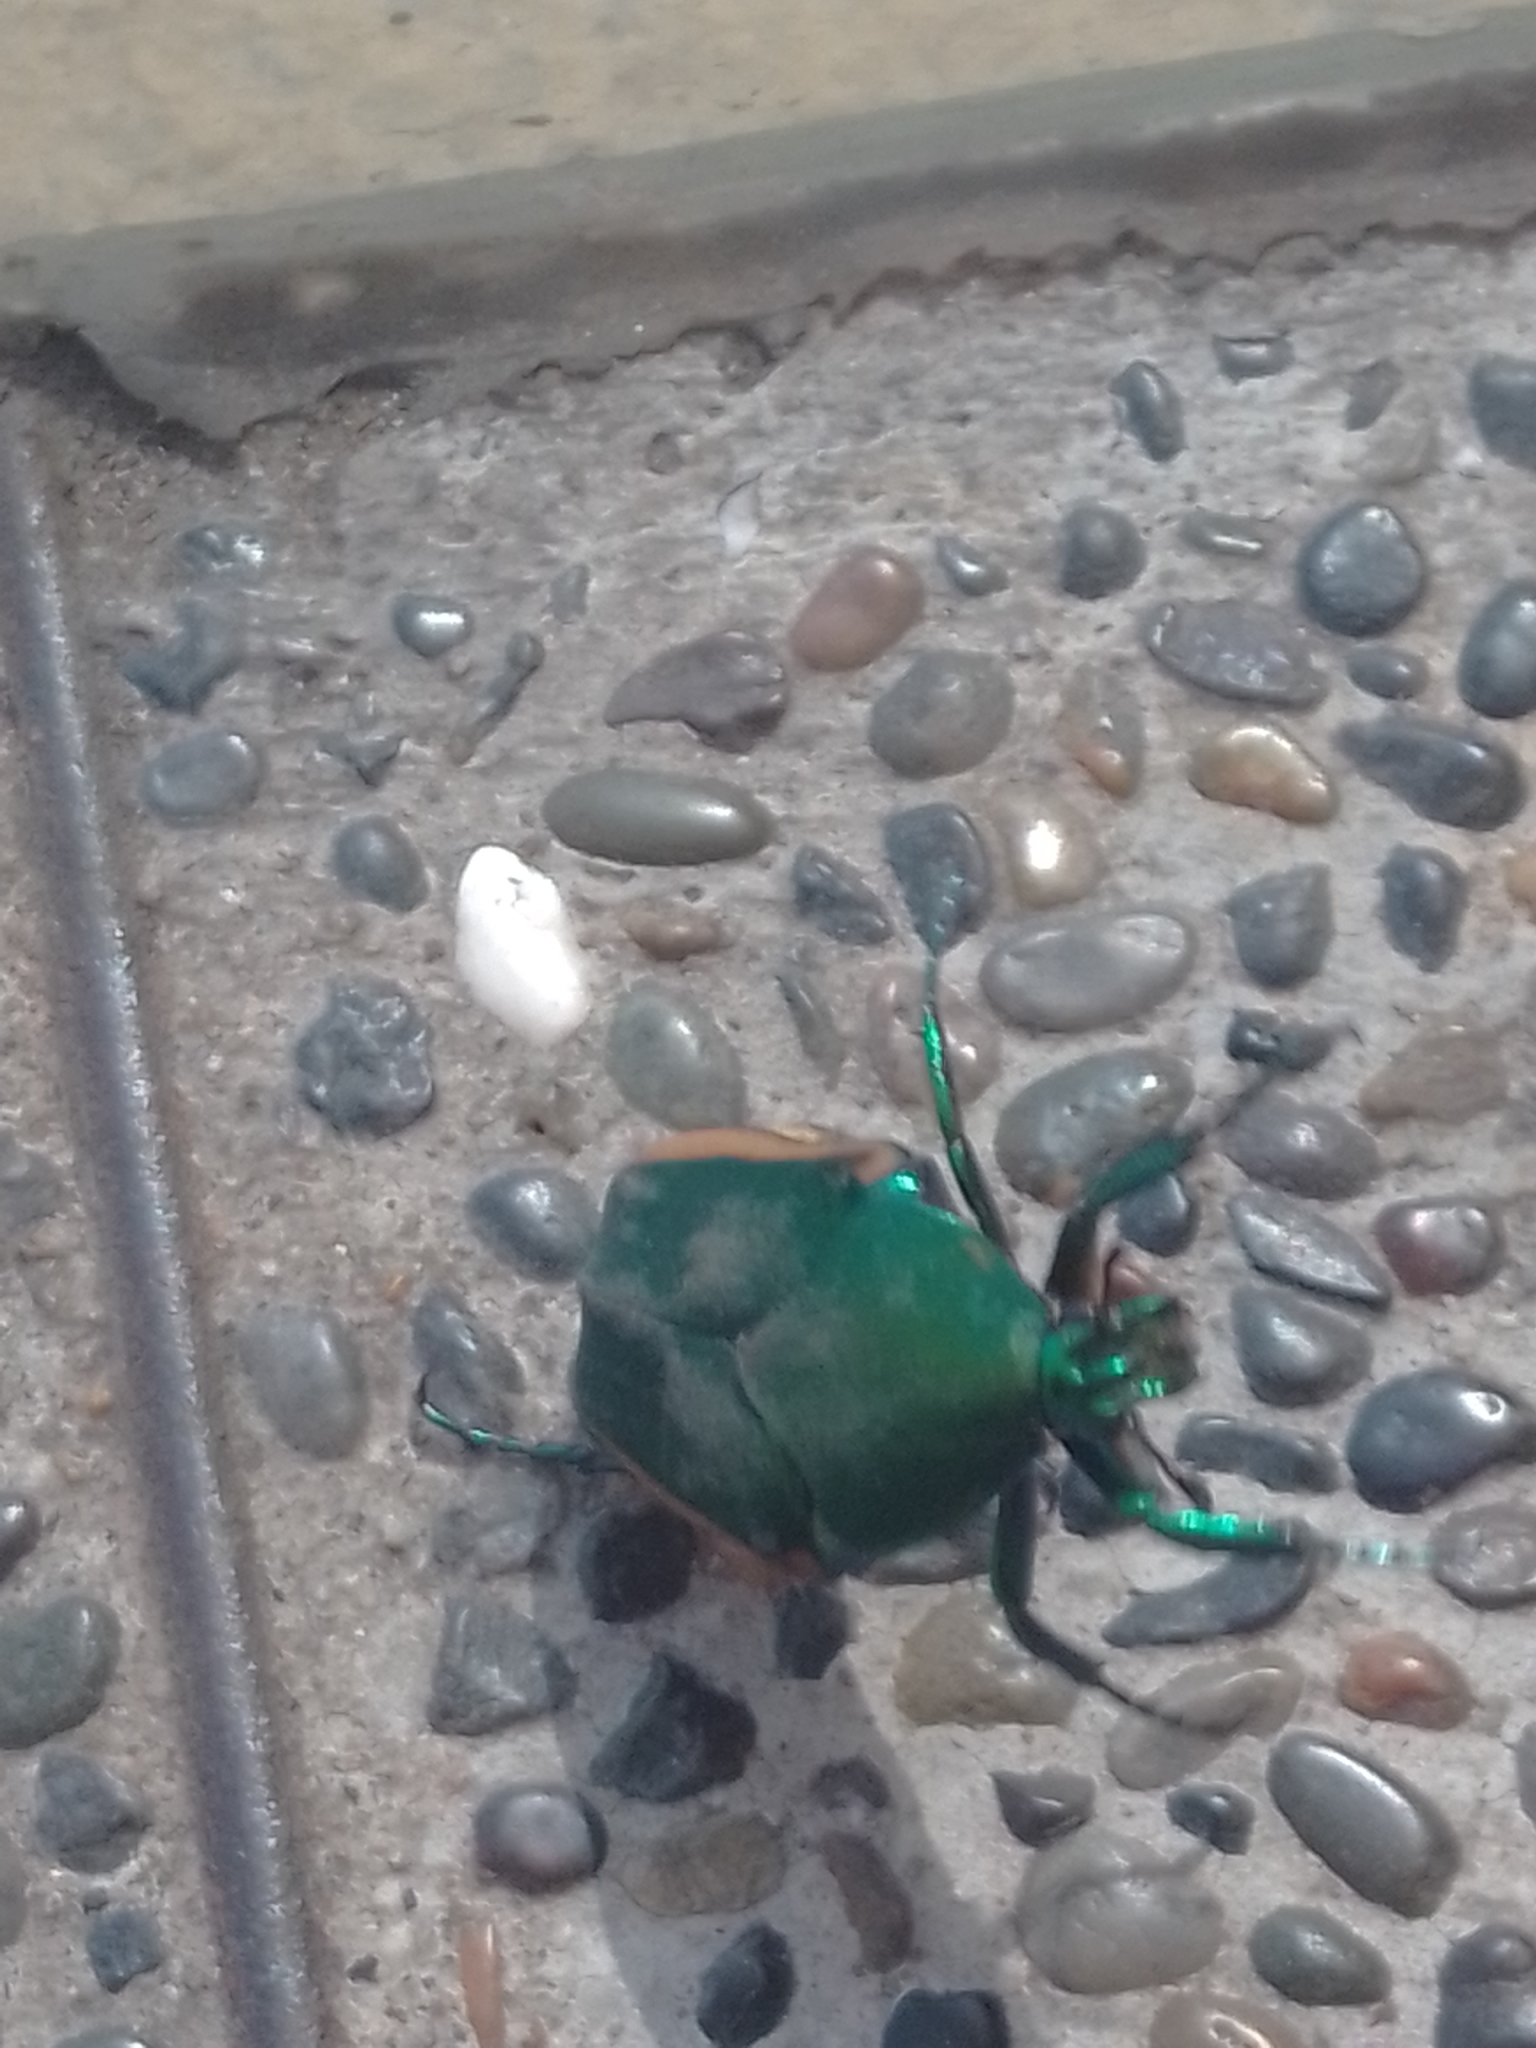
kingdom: Animalia
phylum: Arthropoda
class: Insecta
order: Coleoptera
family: Scarabaeidae
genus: Cotinis
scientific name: Cotinis mutabilis
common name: Figeater beetle
